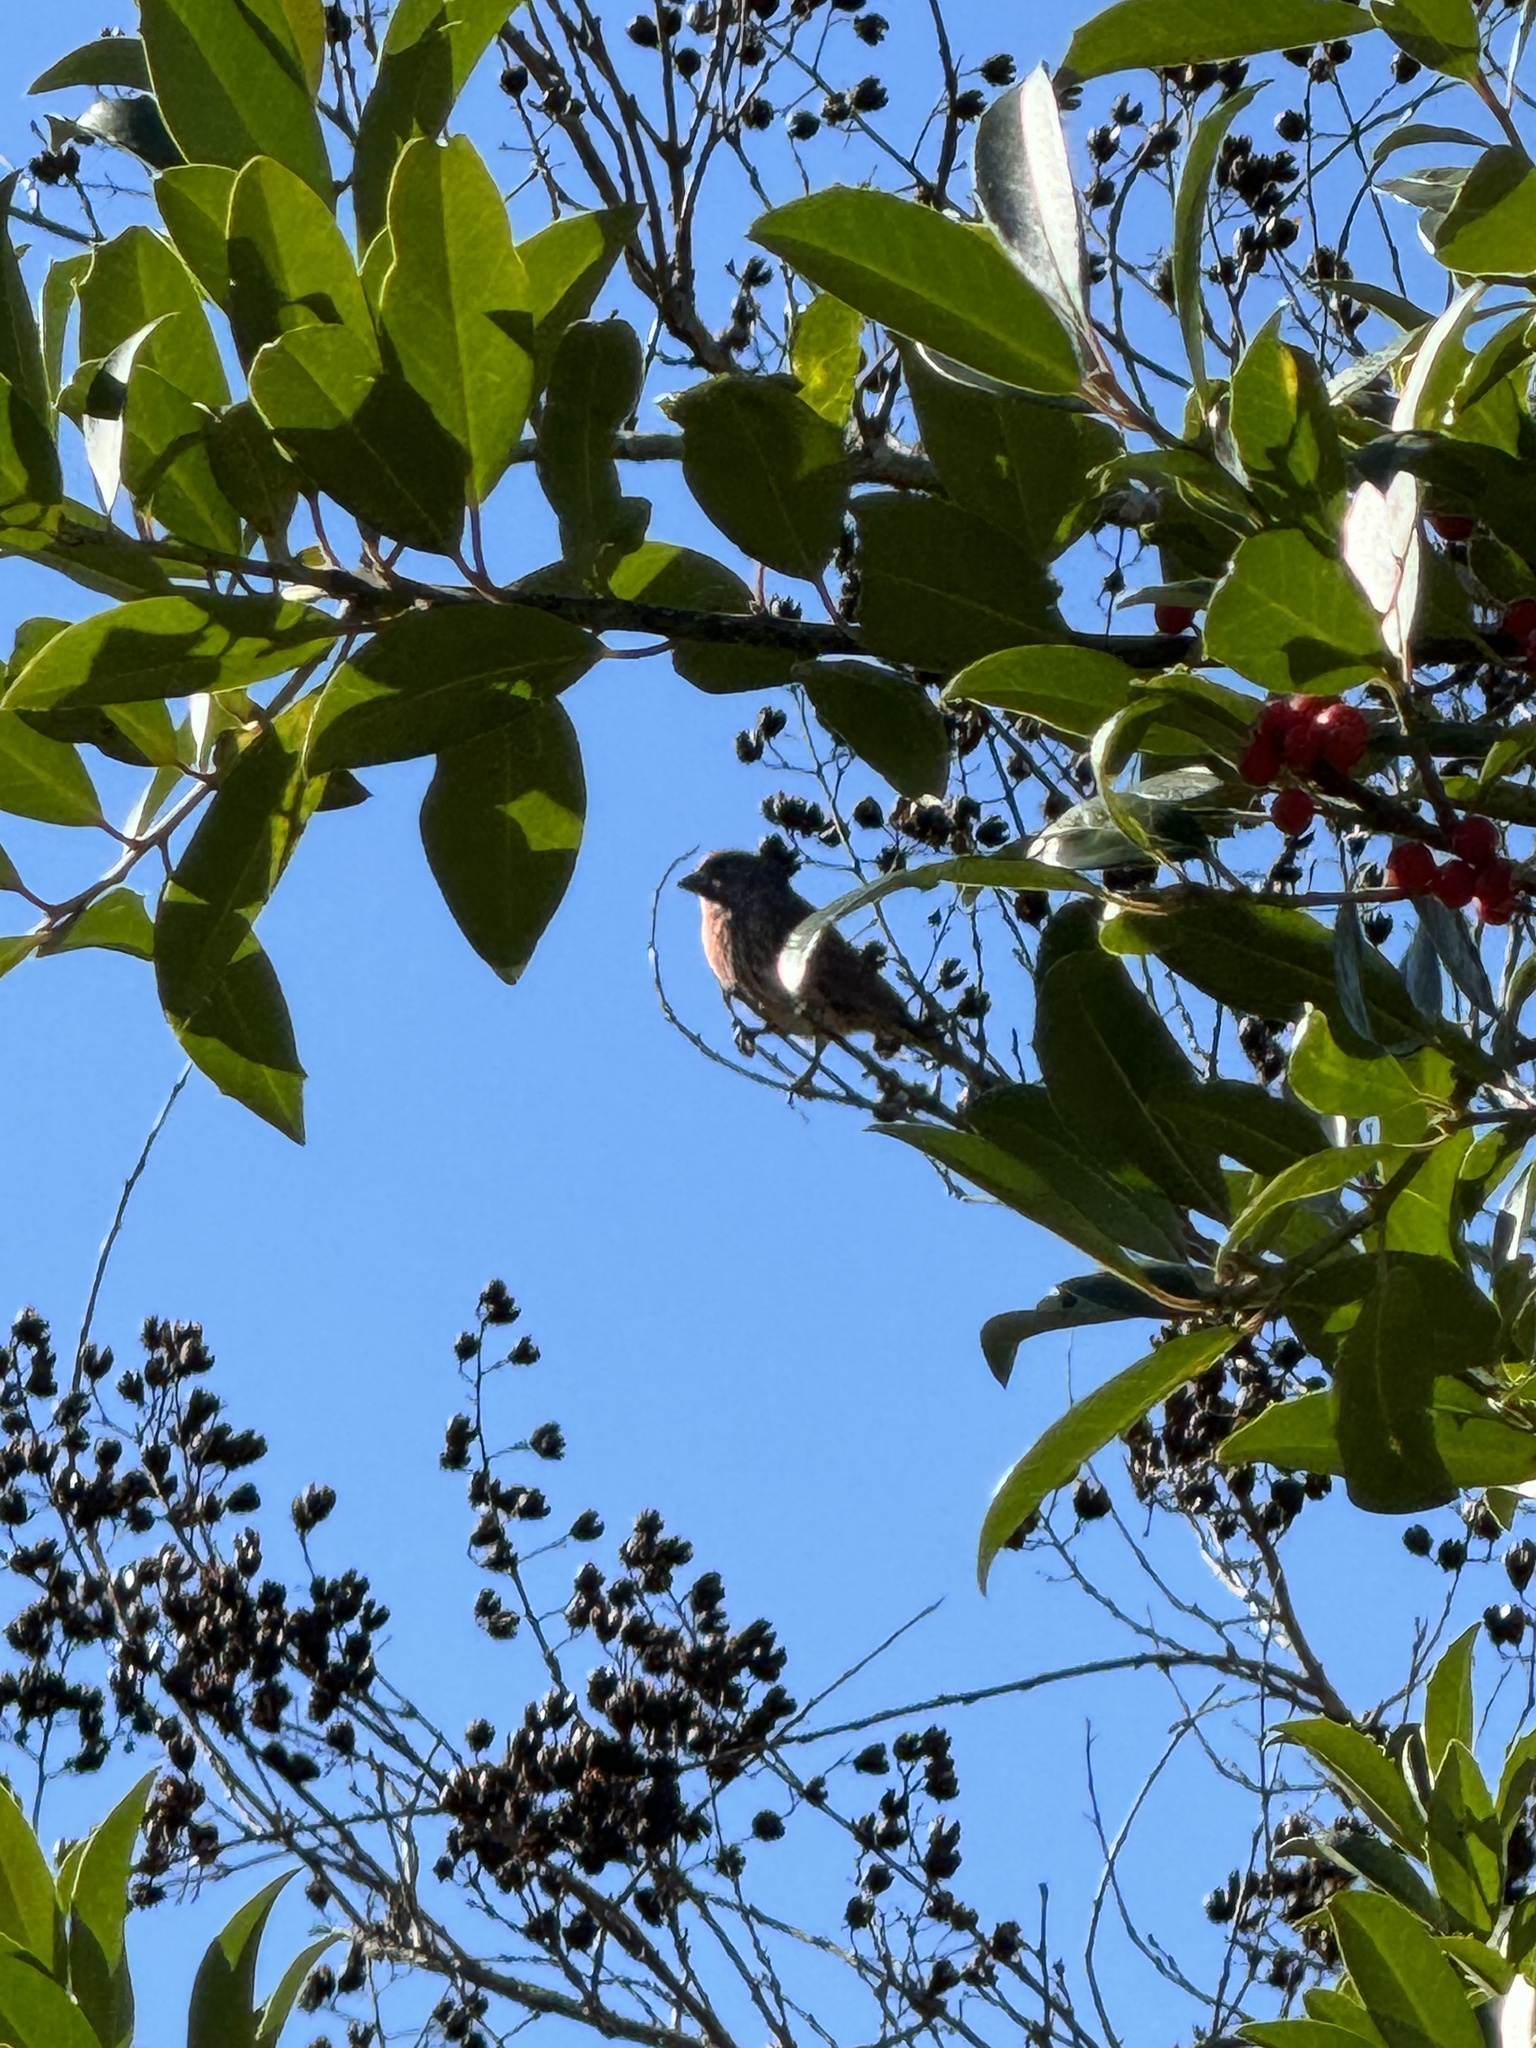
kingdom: Animalia
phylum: Chordata
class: Aves
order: Passeriformes
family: Fringillidae
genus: Haemorhous
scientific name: Haemorhous mexicanus
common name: House finch
